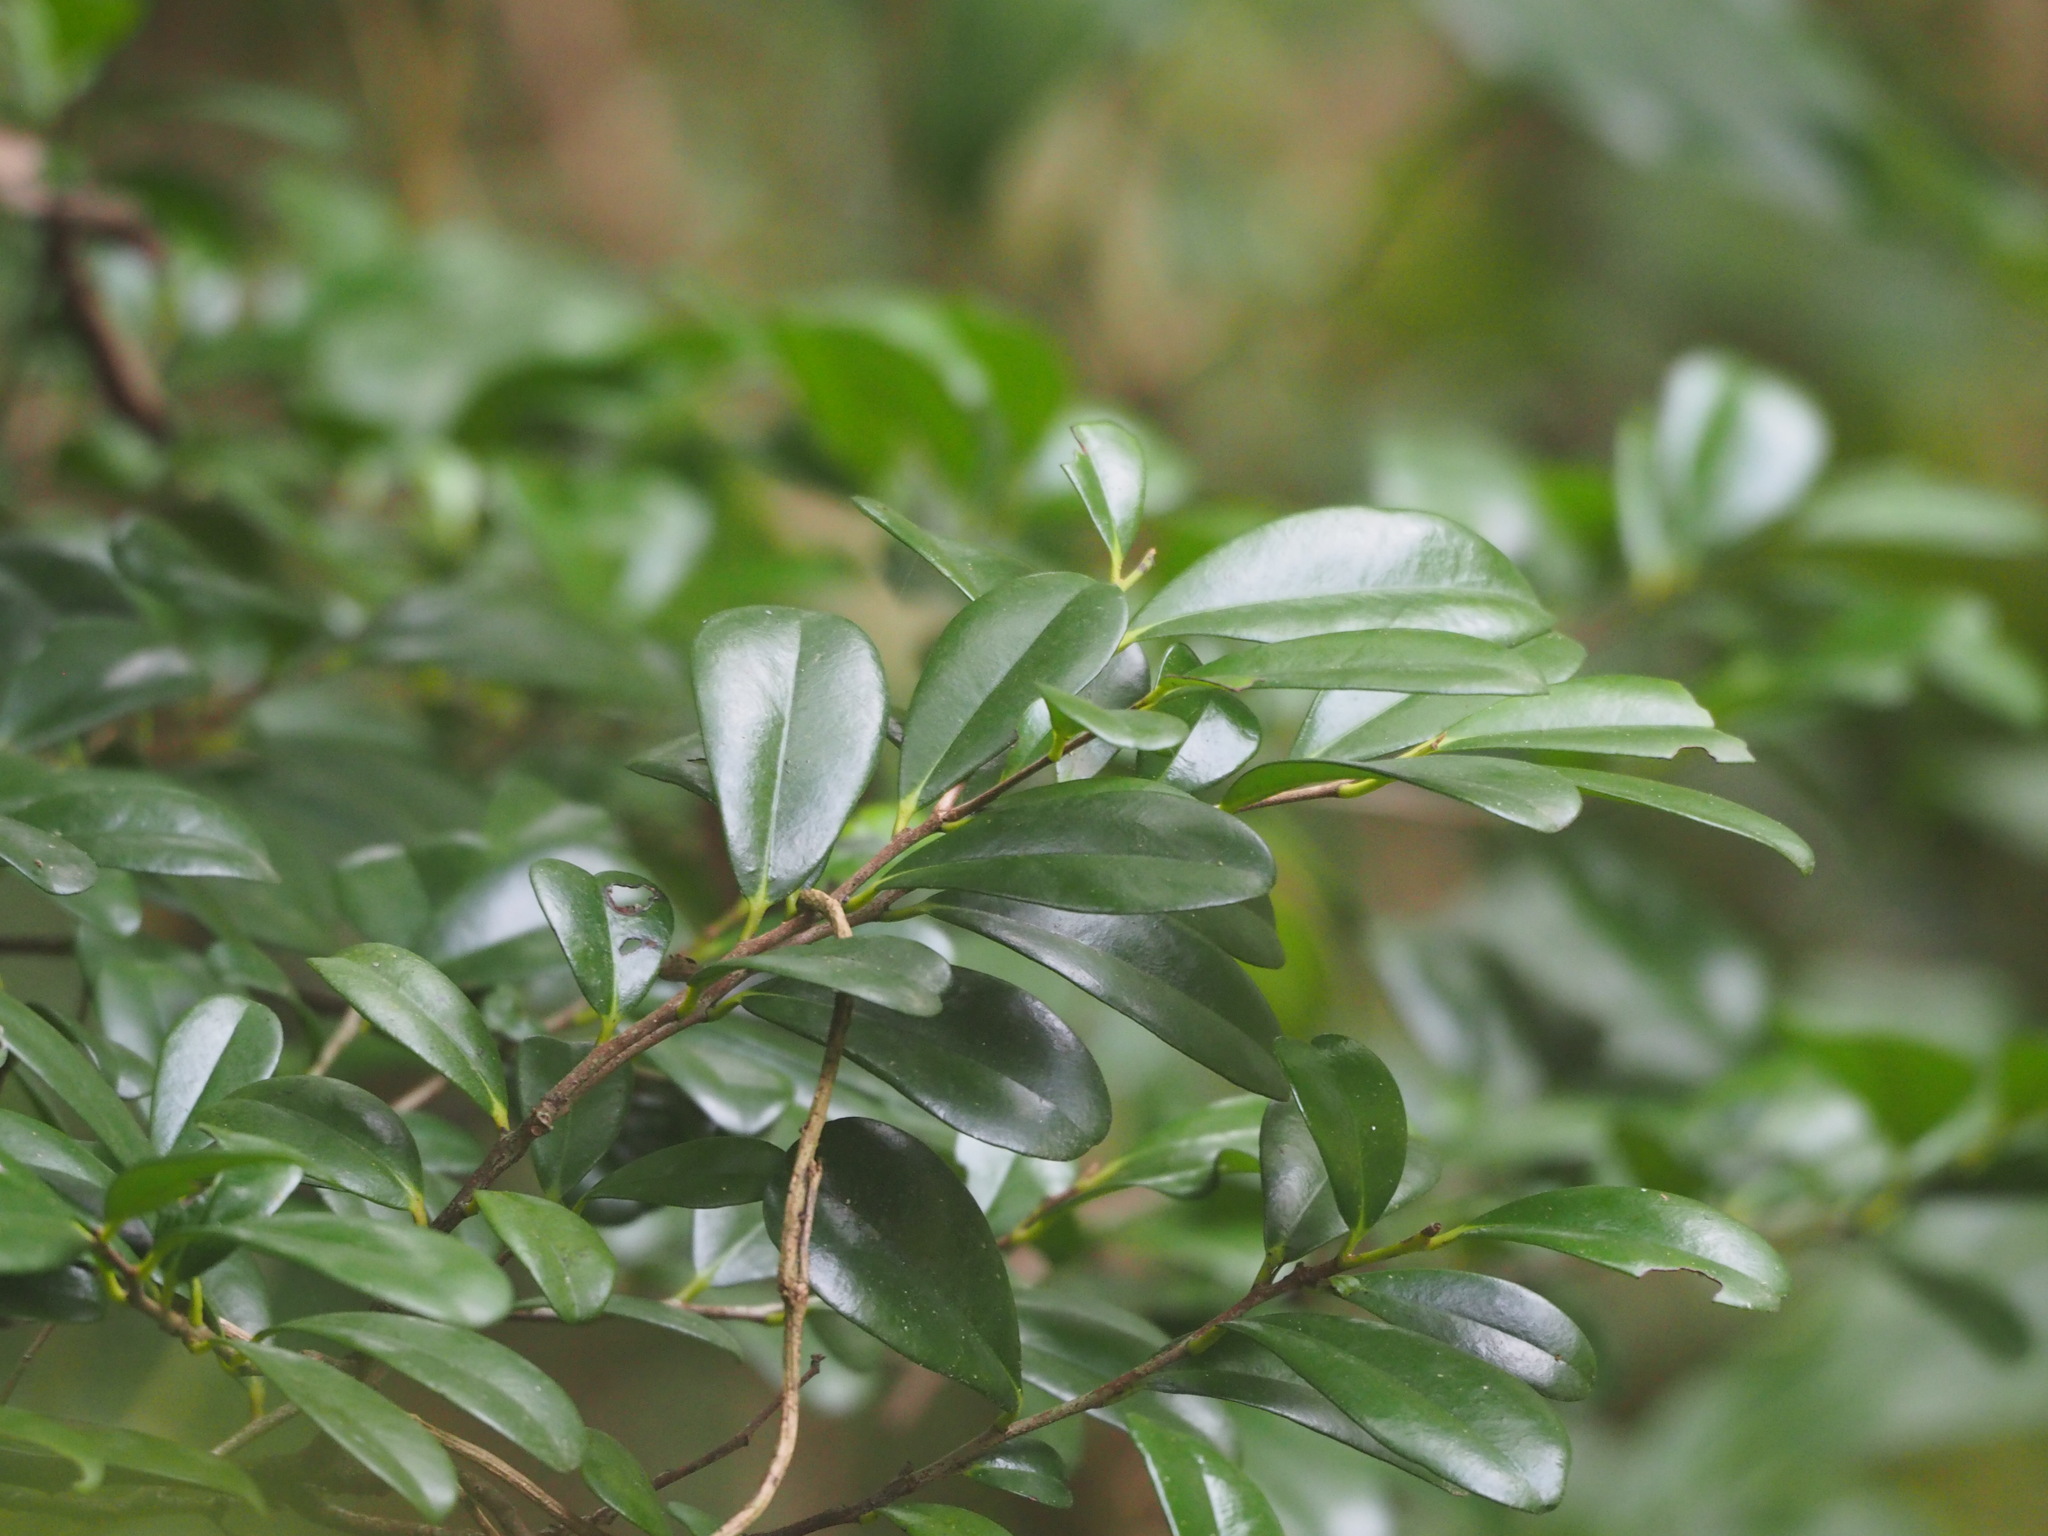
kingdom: Plantae
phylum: Tracheophyta
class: Magnoliopsida
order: Ericales
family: Ebenaceae
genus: Diospyros
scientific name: Diospyros ferrea
